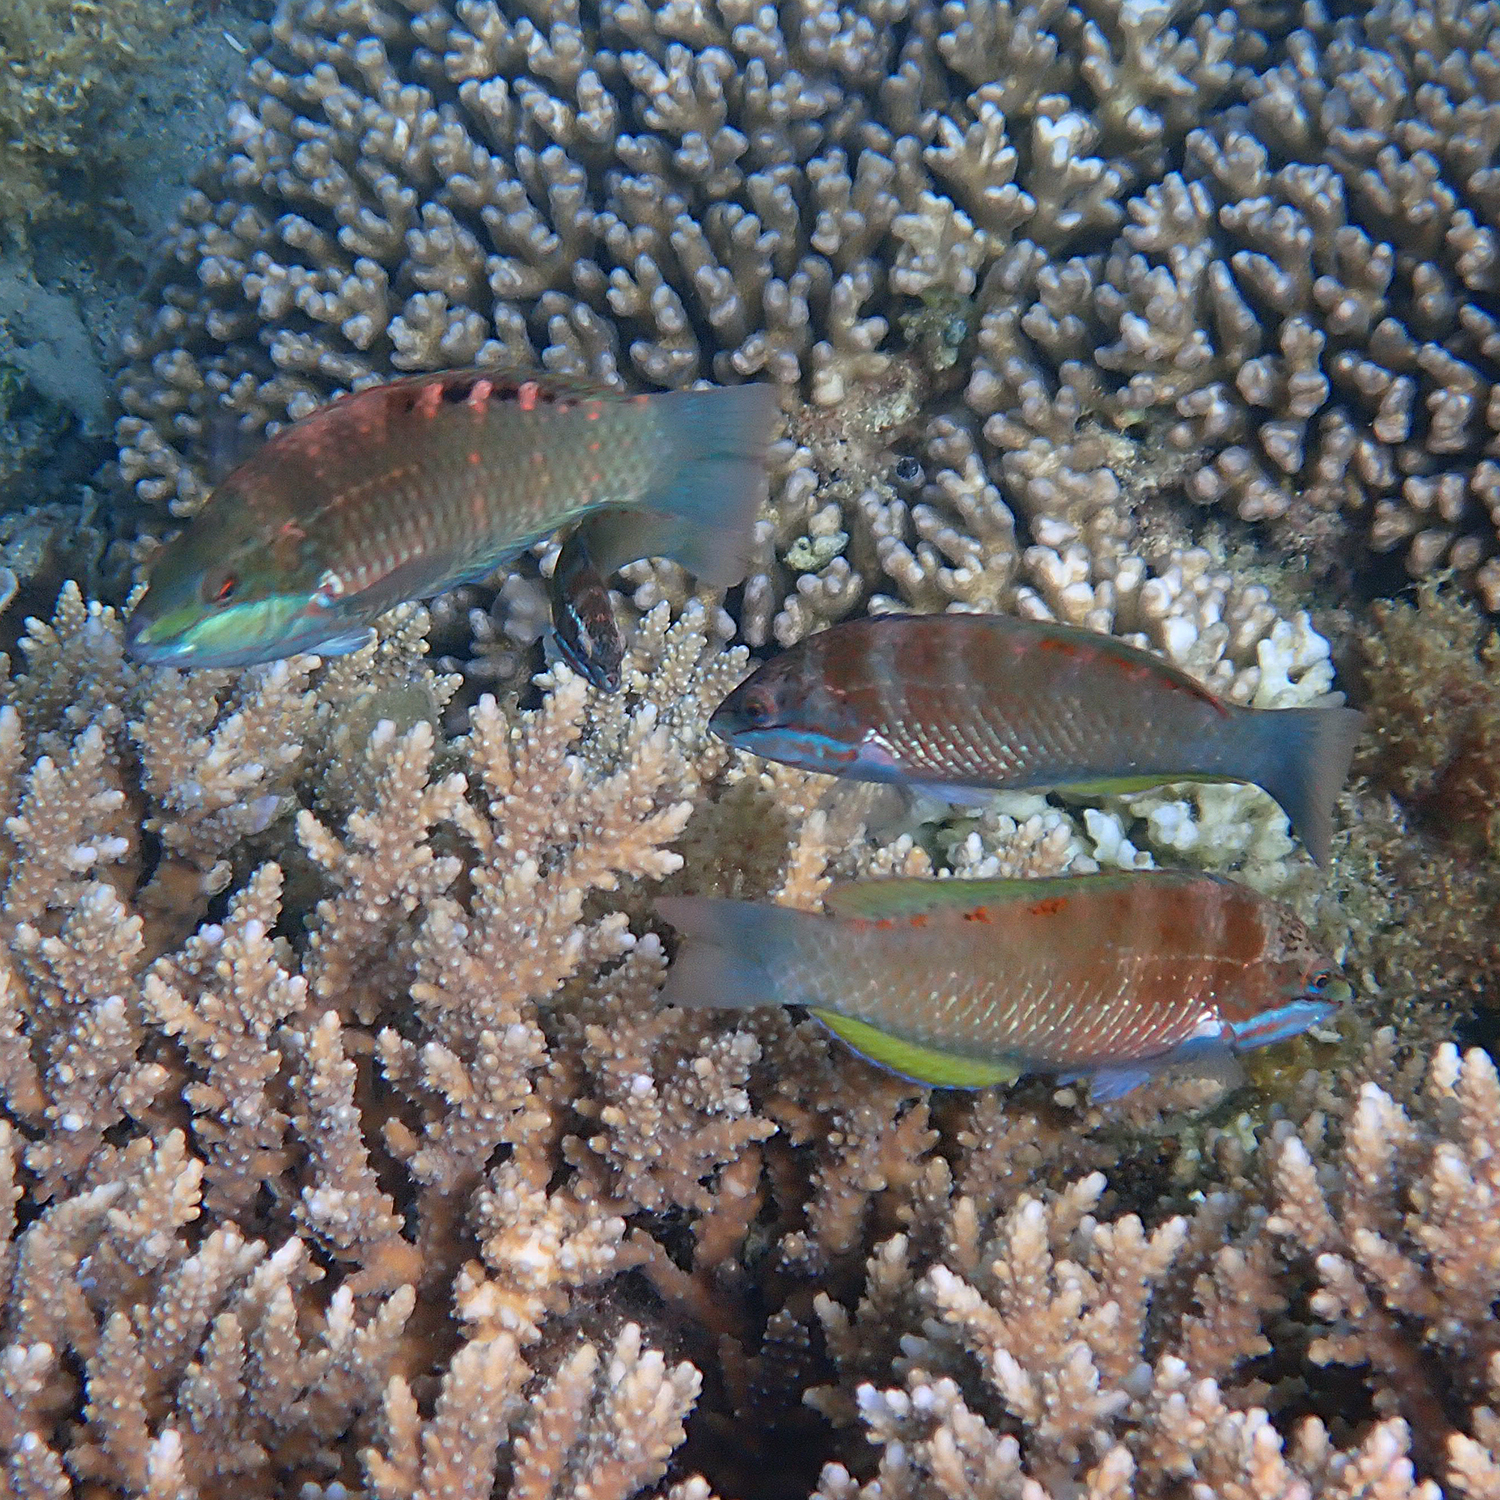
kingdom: Animalia
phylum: Chordata
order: Perciformes
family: Labridae
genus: Pseudolabrus
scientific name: Pseudolabrus luculentus
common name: Luculentus wrasse
